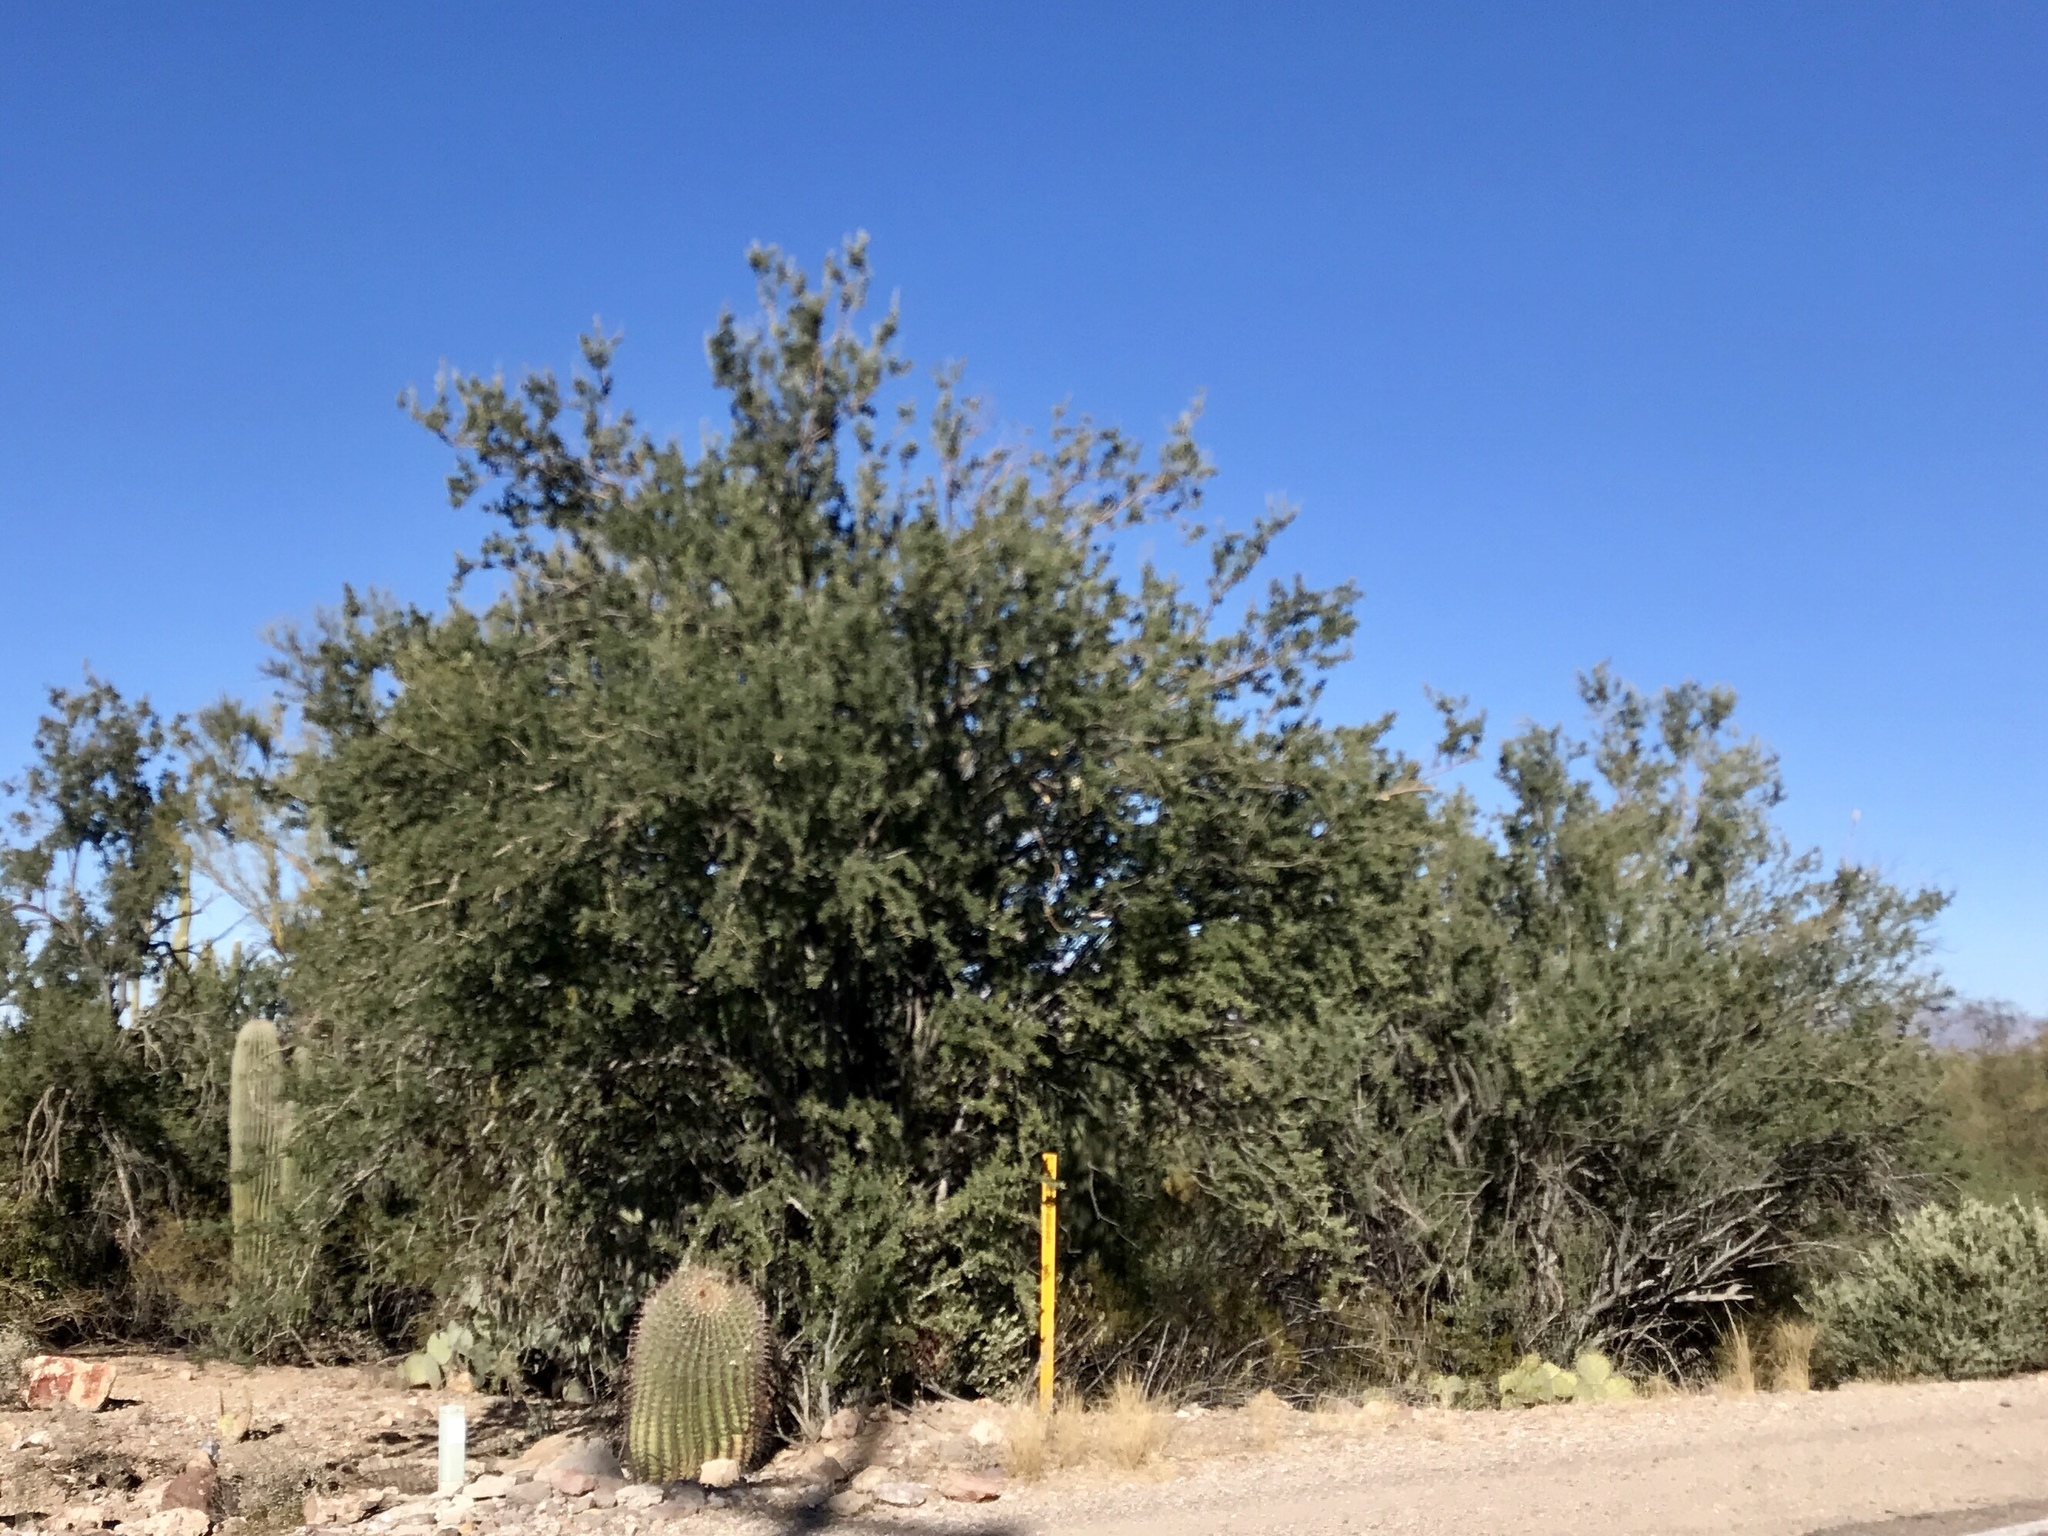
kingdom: Plantae
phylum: Tracheophyta
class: Magnoliopsida
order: Fabales
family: Fabaceae
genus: Olneya
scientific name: Olneya tesota
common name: Desert ironwood
